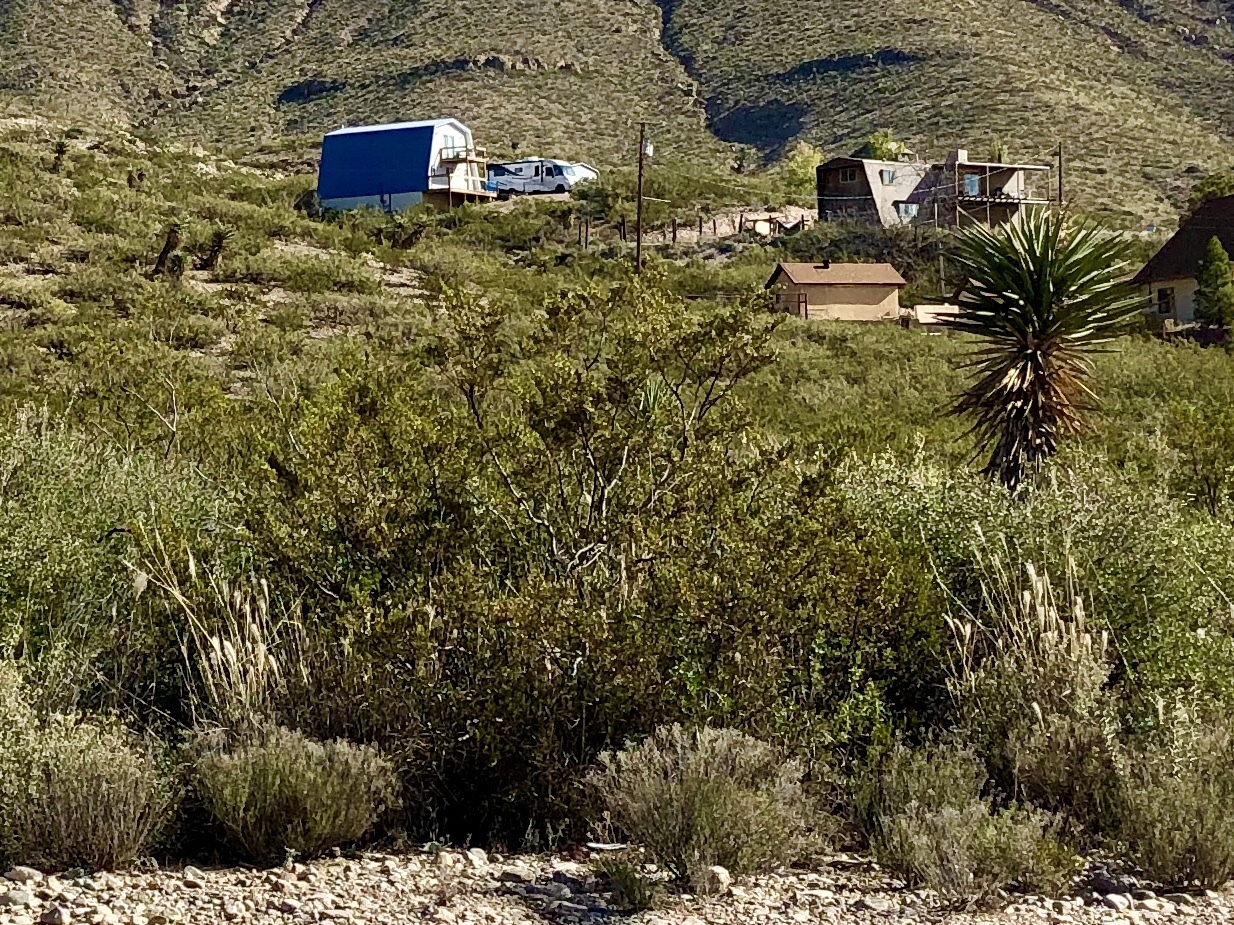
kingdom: Plantae
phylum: Tracheophyta
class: Magnoliopsida
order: Zygophyllales
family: Zygophyllaceae
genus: Larrea
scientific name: Larrea tridentata
